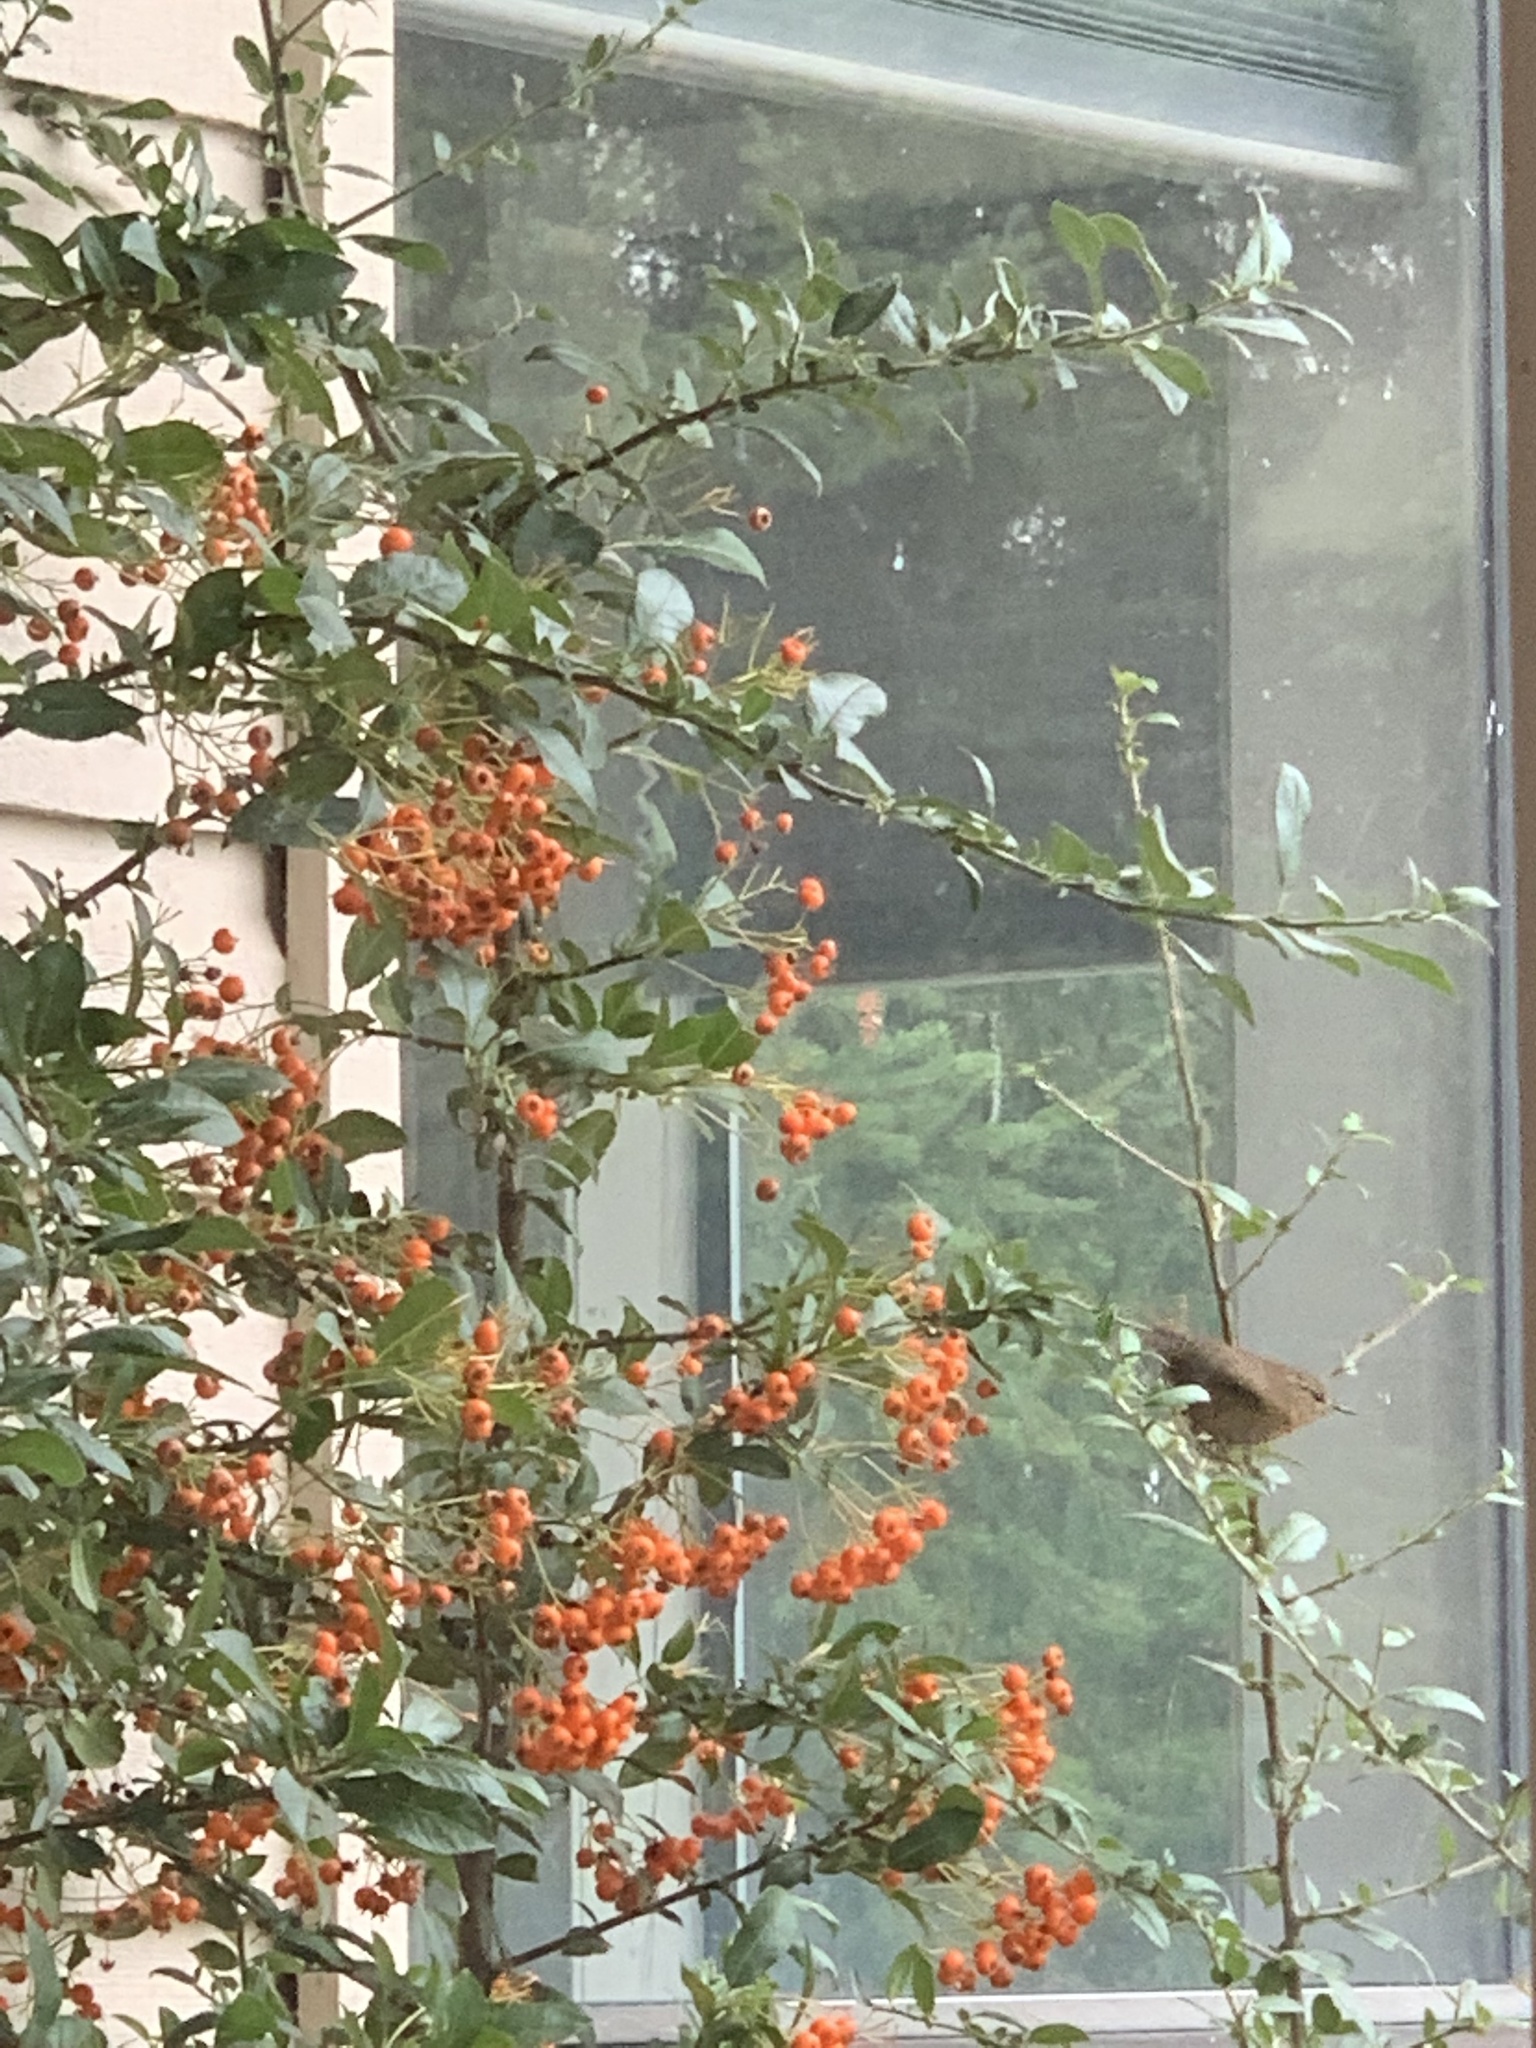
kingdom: Animalia
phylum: Chordata
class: Aves
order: Passeriformes
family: Troglodytidae
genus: Troglodytes
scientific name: Troglodytes pacificus
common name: Pacific wren
